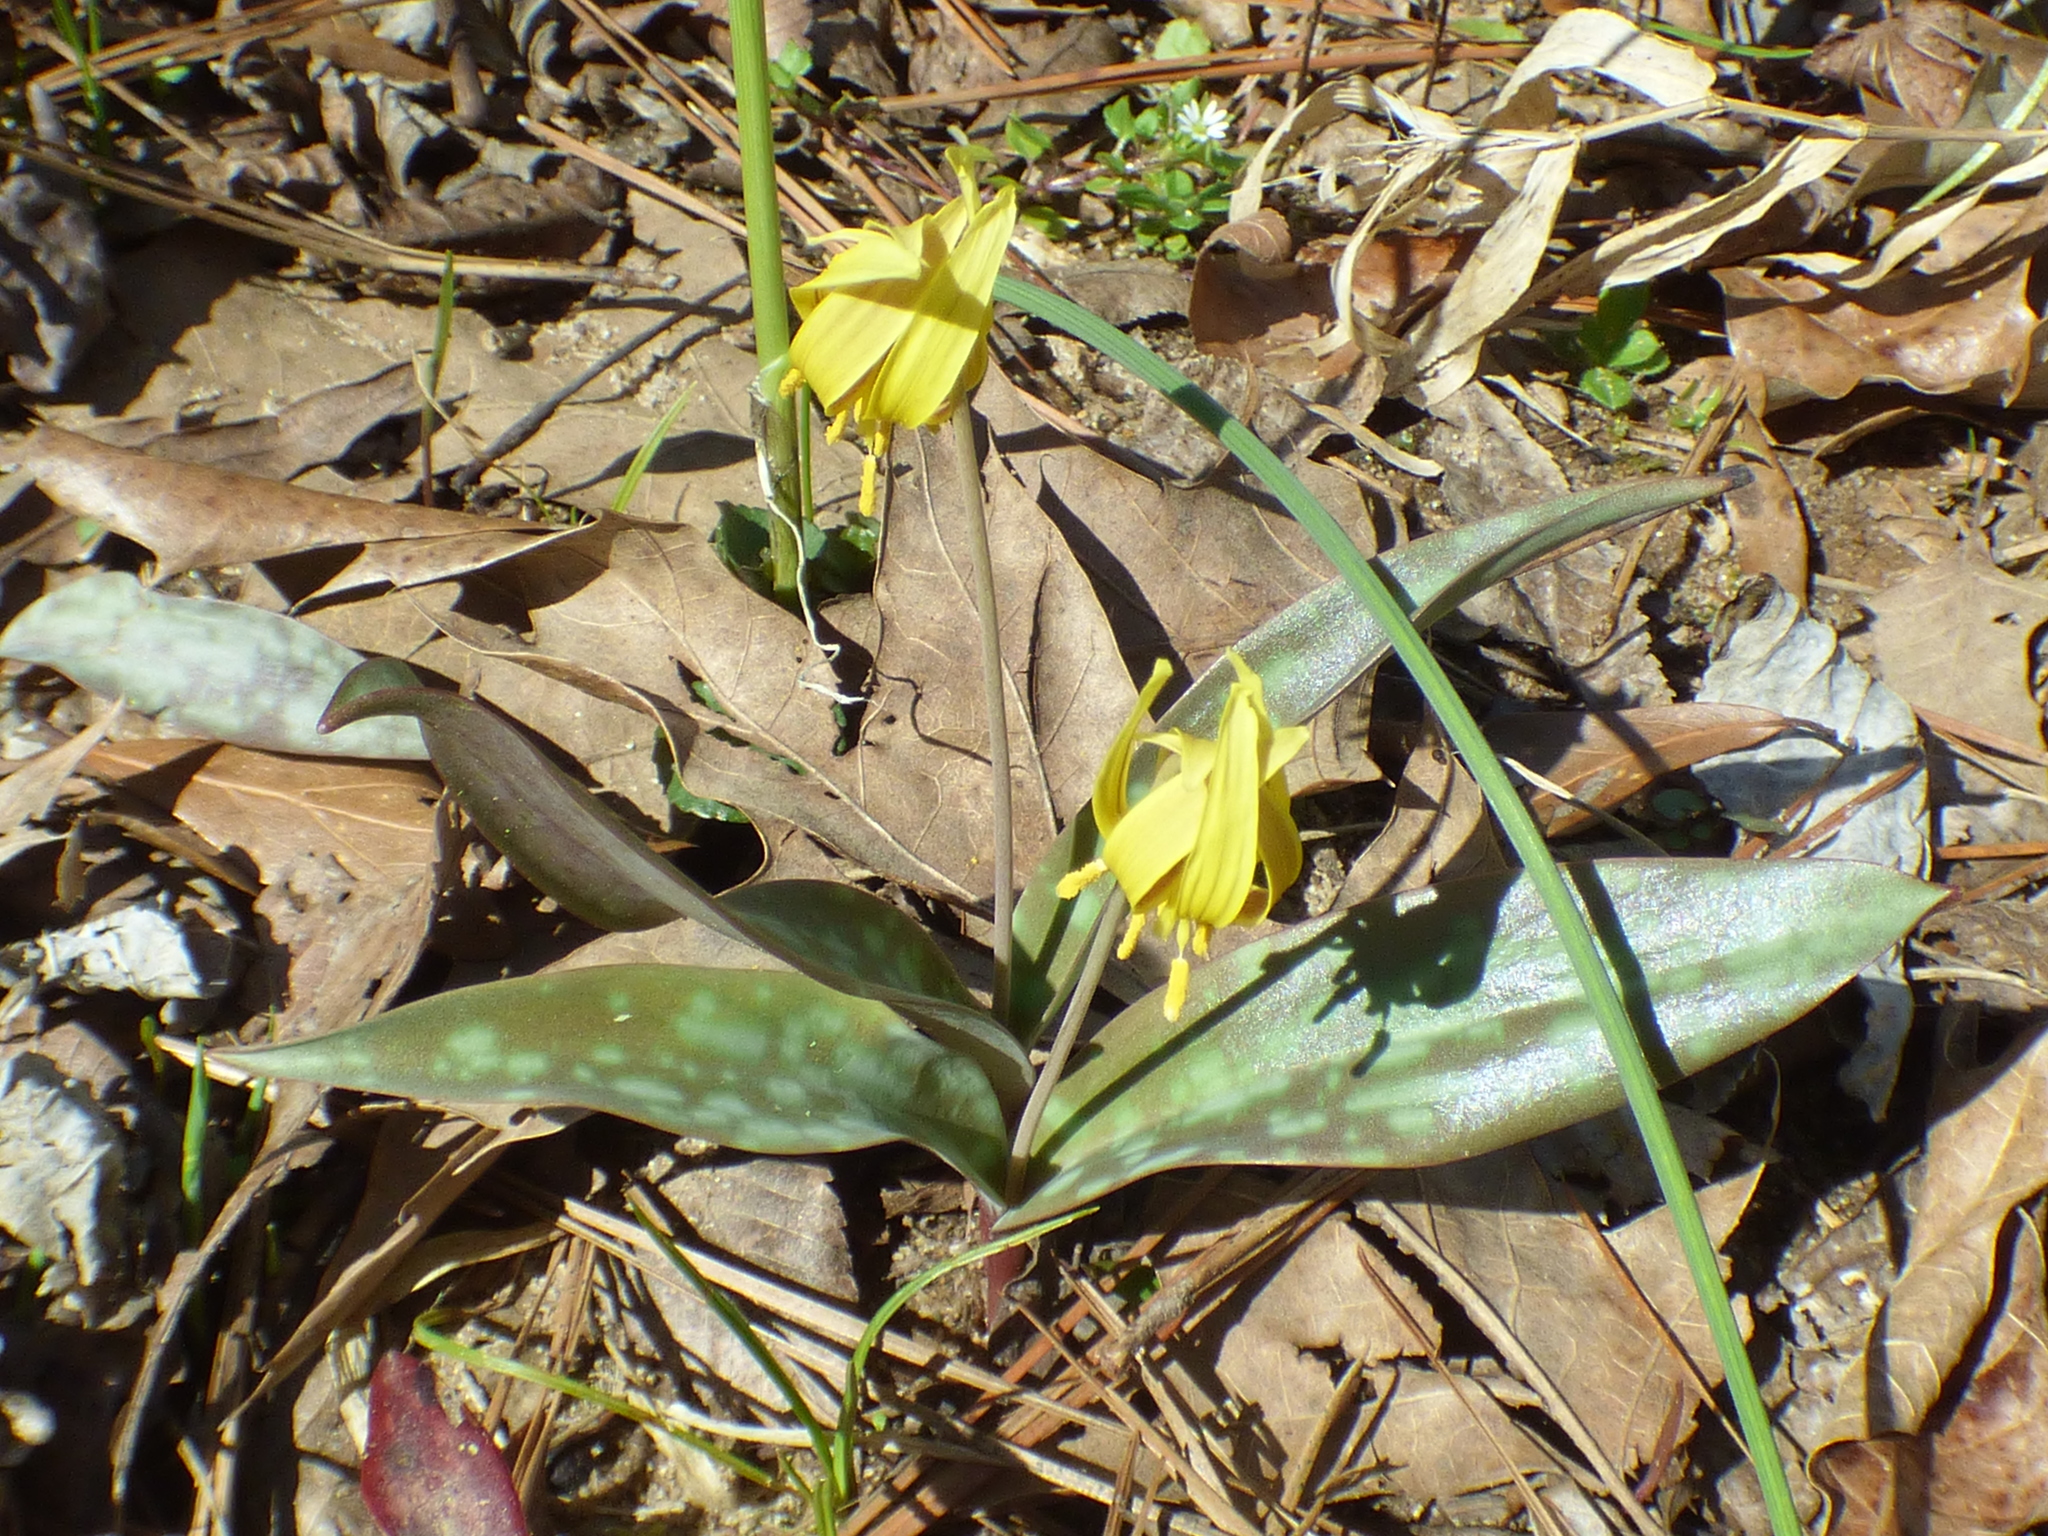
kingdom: Plantae
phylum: Tracheophyta
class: Liliopsida
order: Liliales
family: Liliaceae
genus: Erythronium
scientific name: Erythronium umbilicatum
